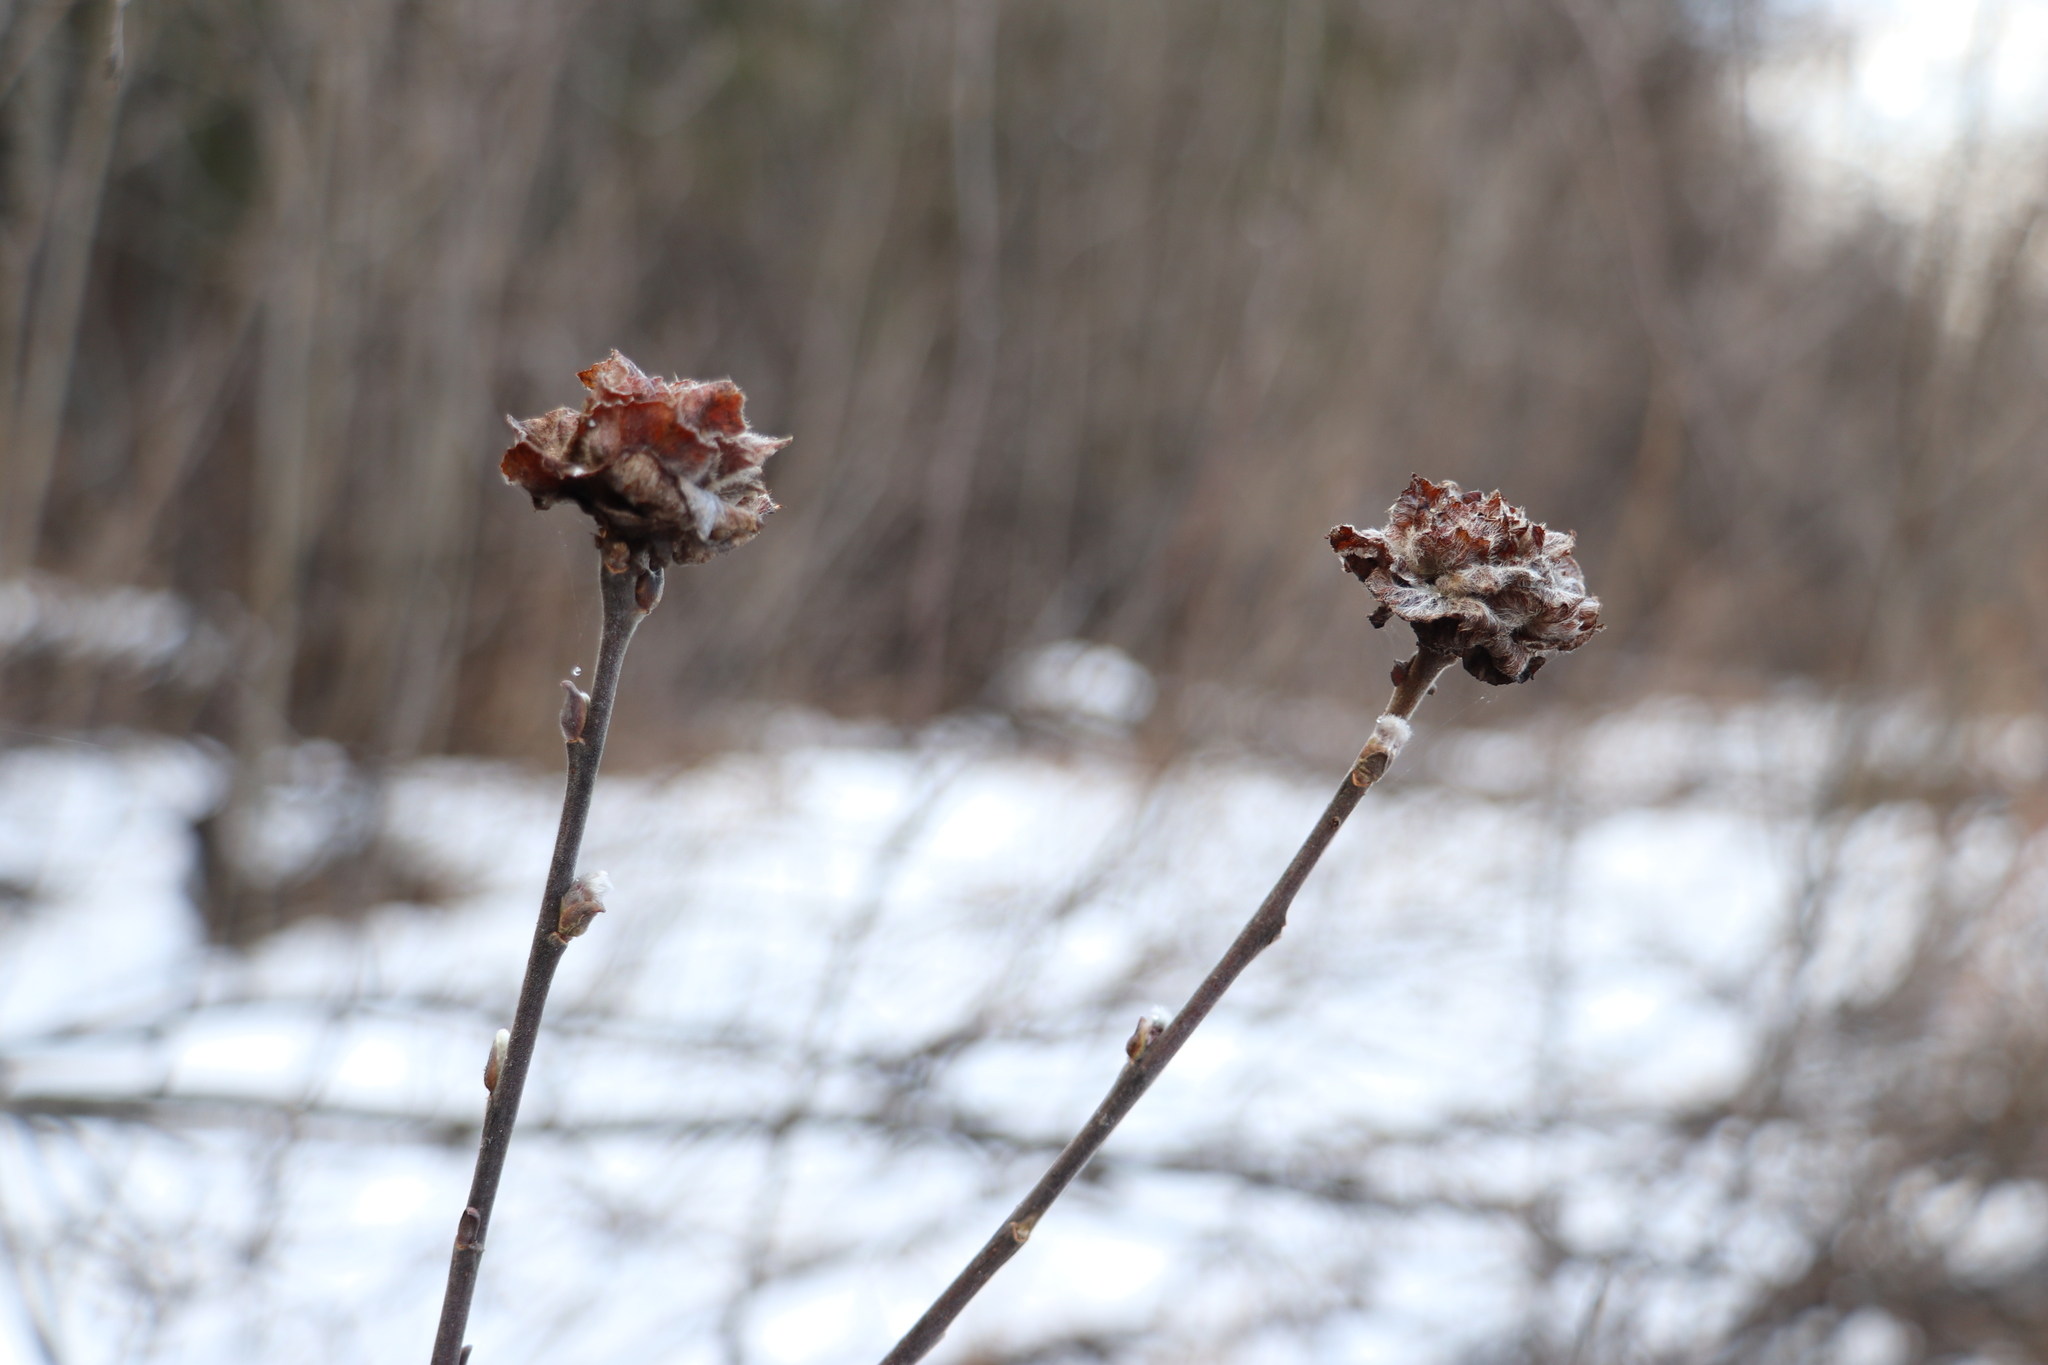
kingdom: Animalia
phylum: Arthropoda
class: Insecta
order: Diptera
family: Cecidomyiidae
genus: Rabdophaga
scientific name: Rabdophaga rosaria
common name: Willow rose gall midge
